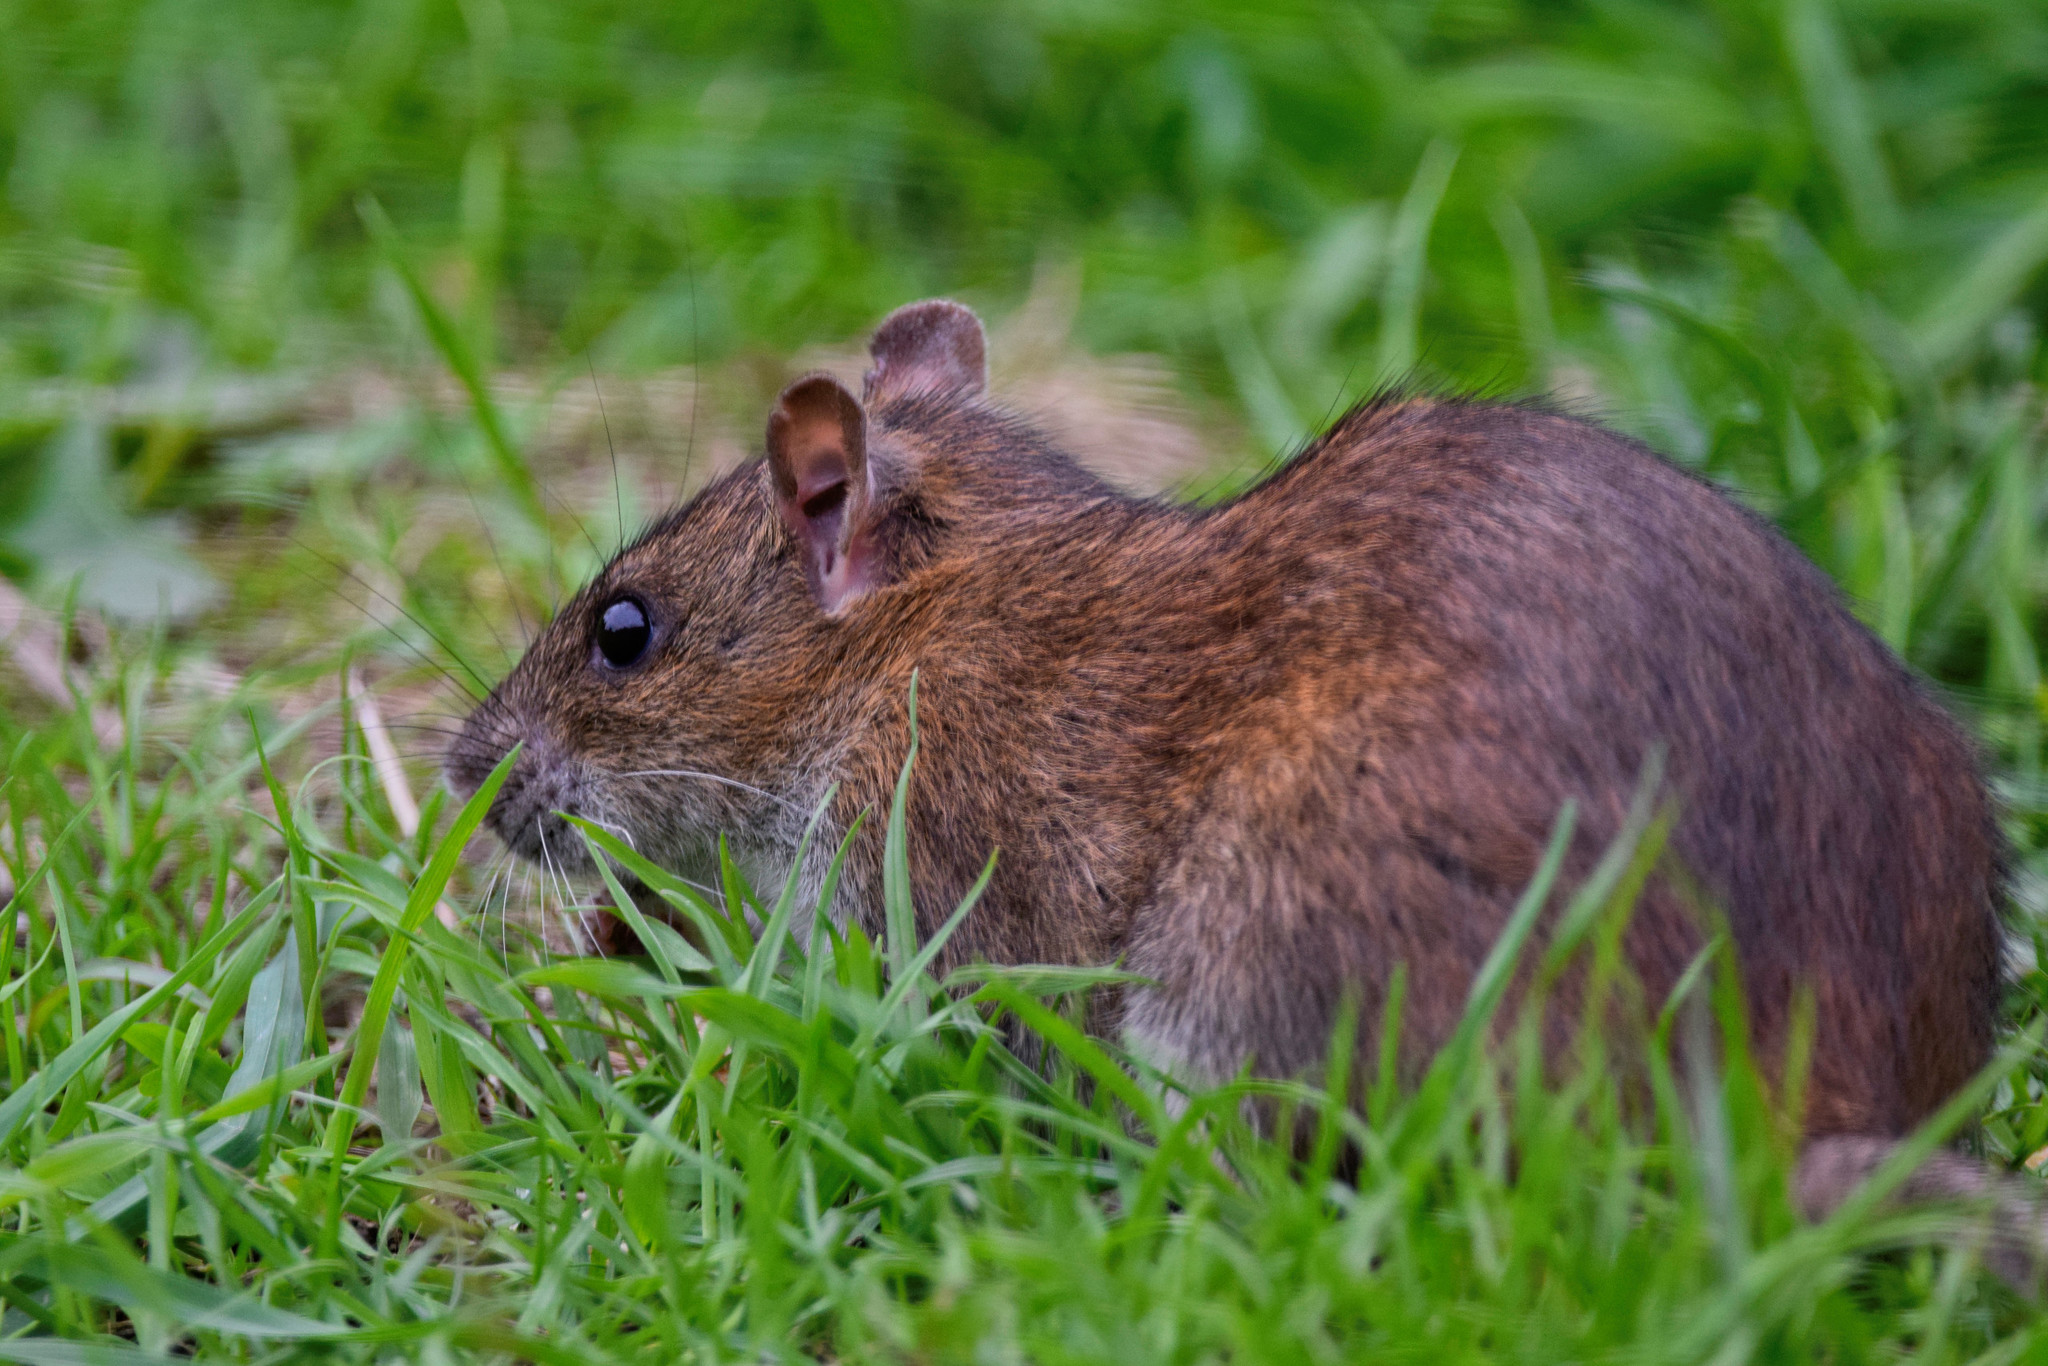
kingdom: Animalia
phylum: Chordata
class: Mammalia
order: Rodentia
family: Muridae
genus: Rattus
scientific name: Rattus norvegicus
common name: Brown rat
